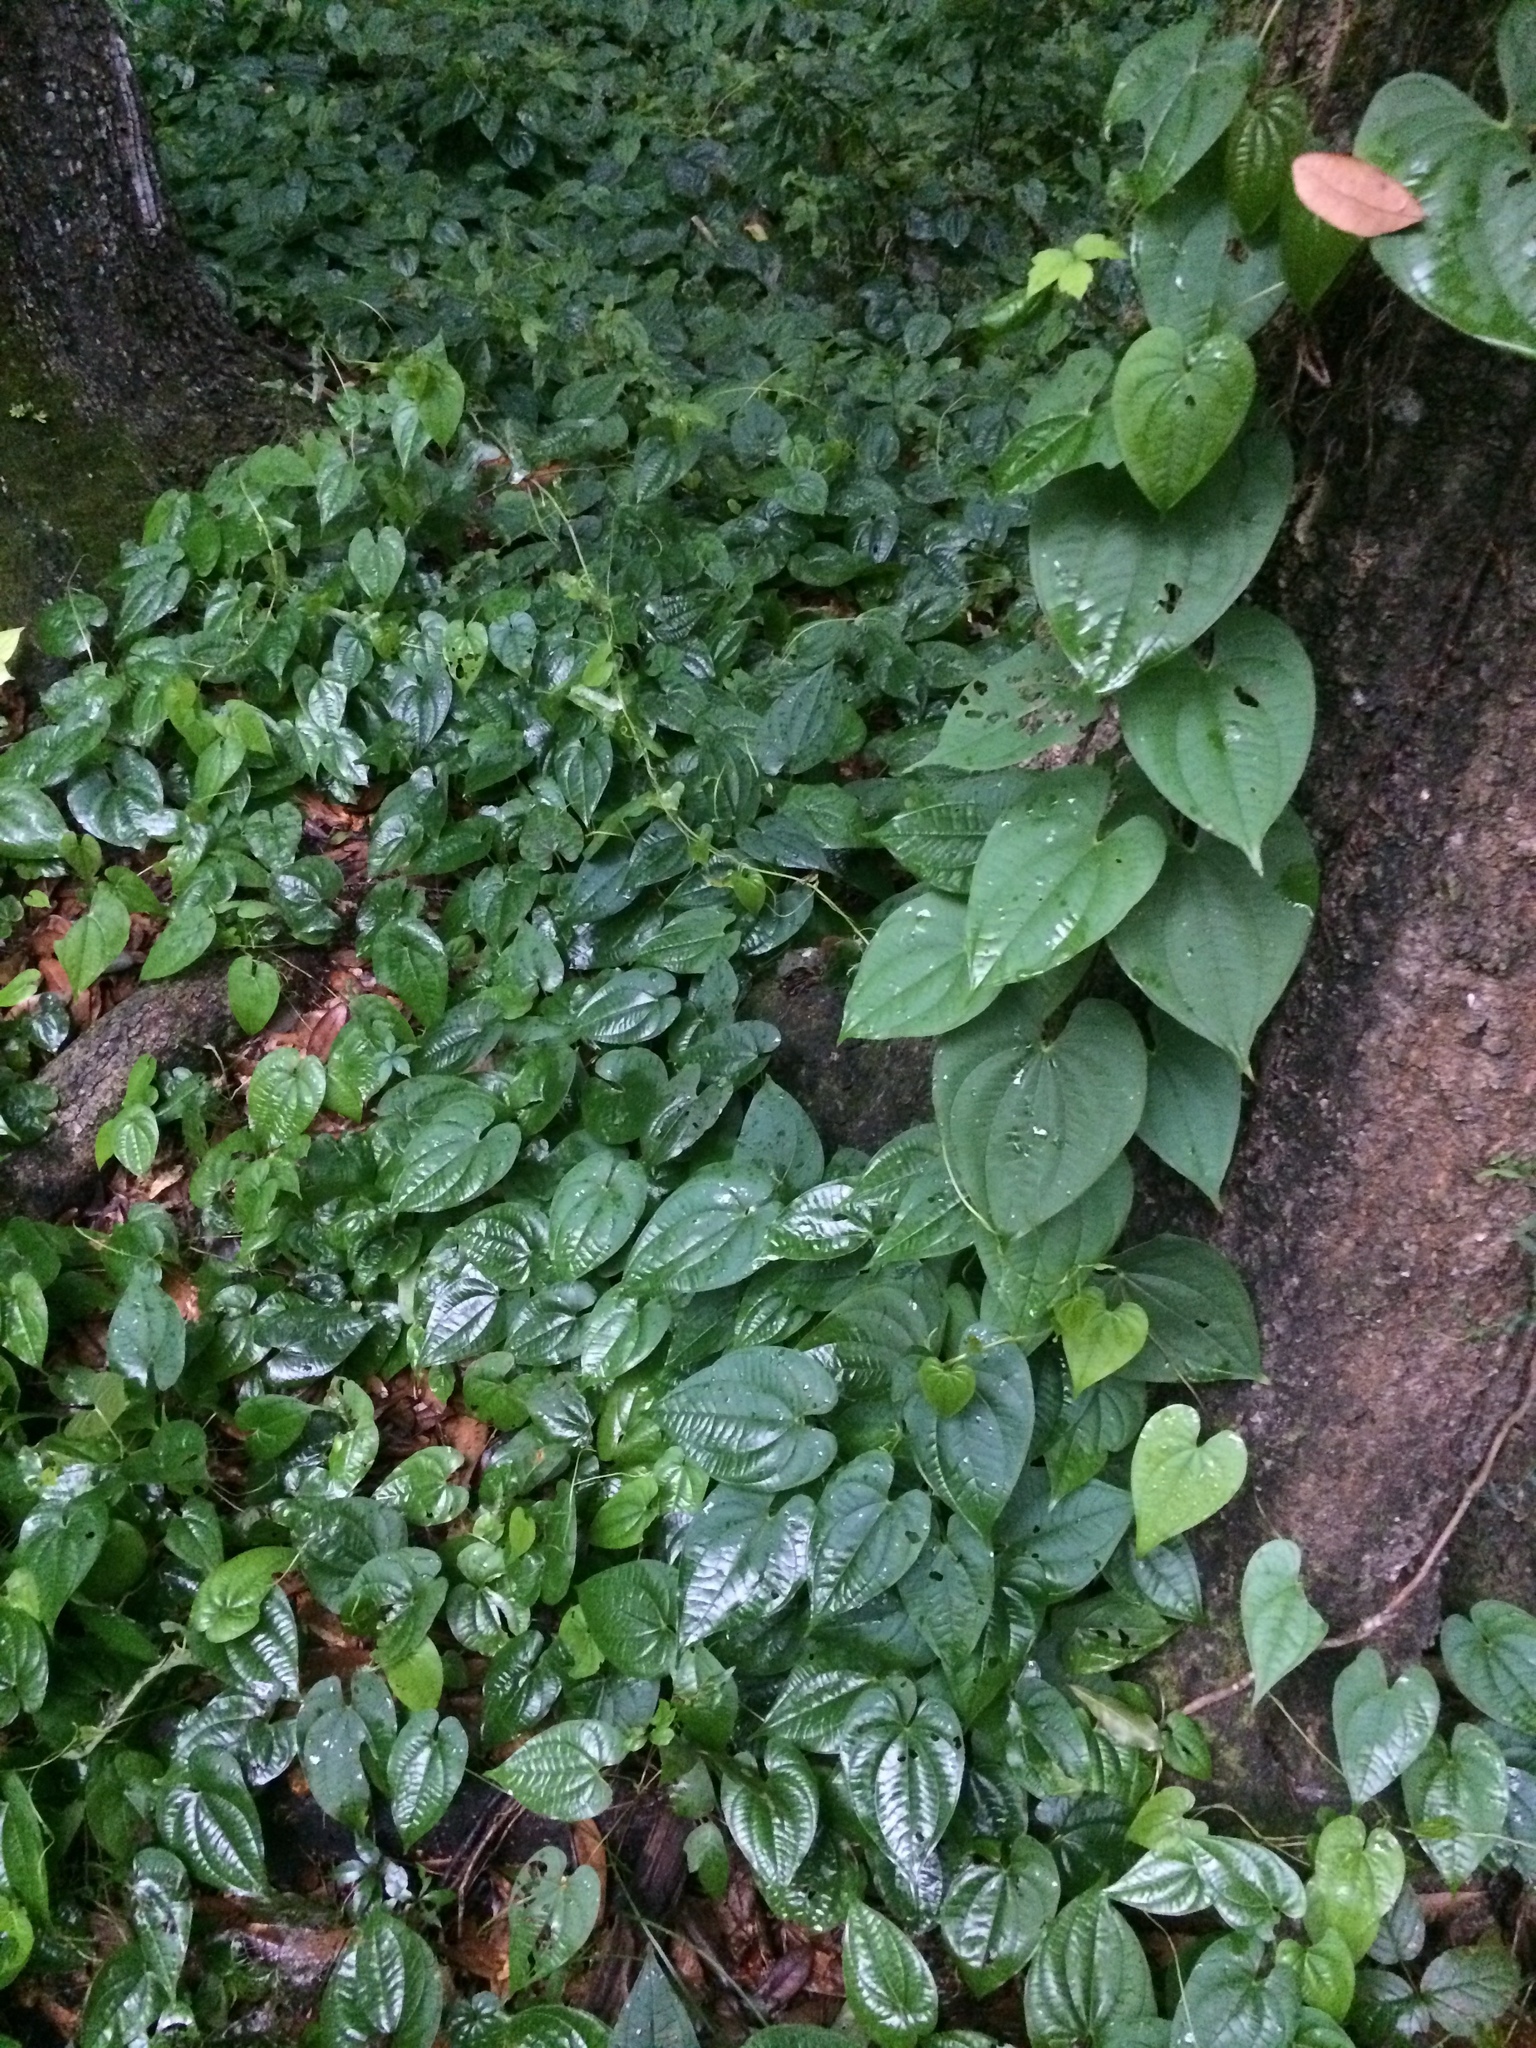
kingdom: Plantae
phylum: Tracheophyta
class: Liliopsida
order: Dioscoreales
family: Dioscoreaceae
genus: Dioscorea
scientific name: Dioscorea bulbifera
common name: Air yam
